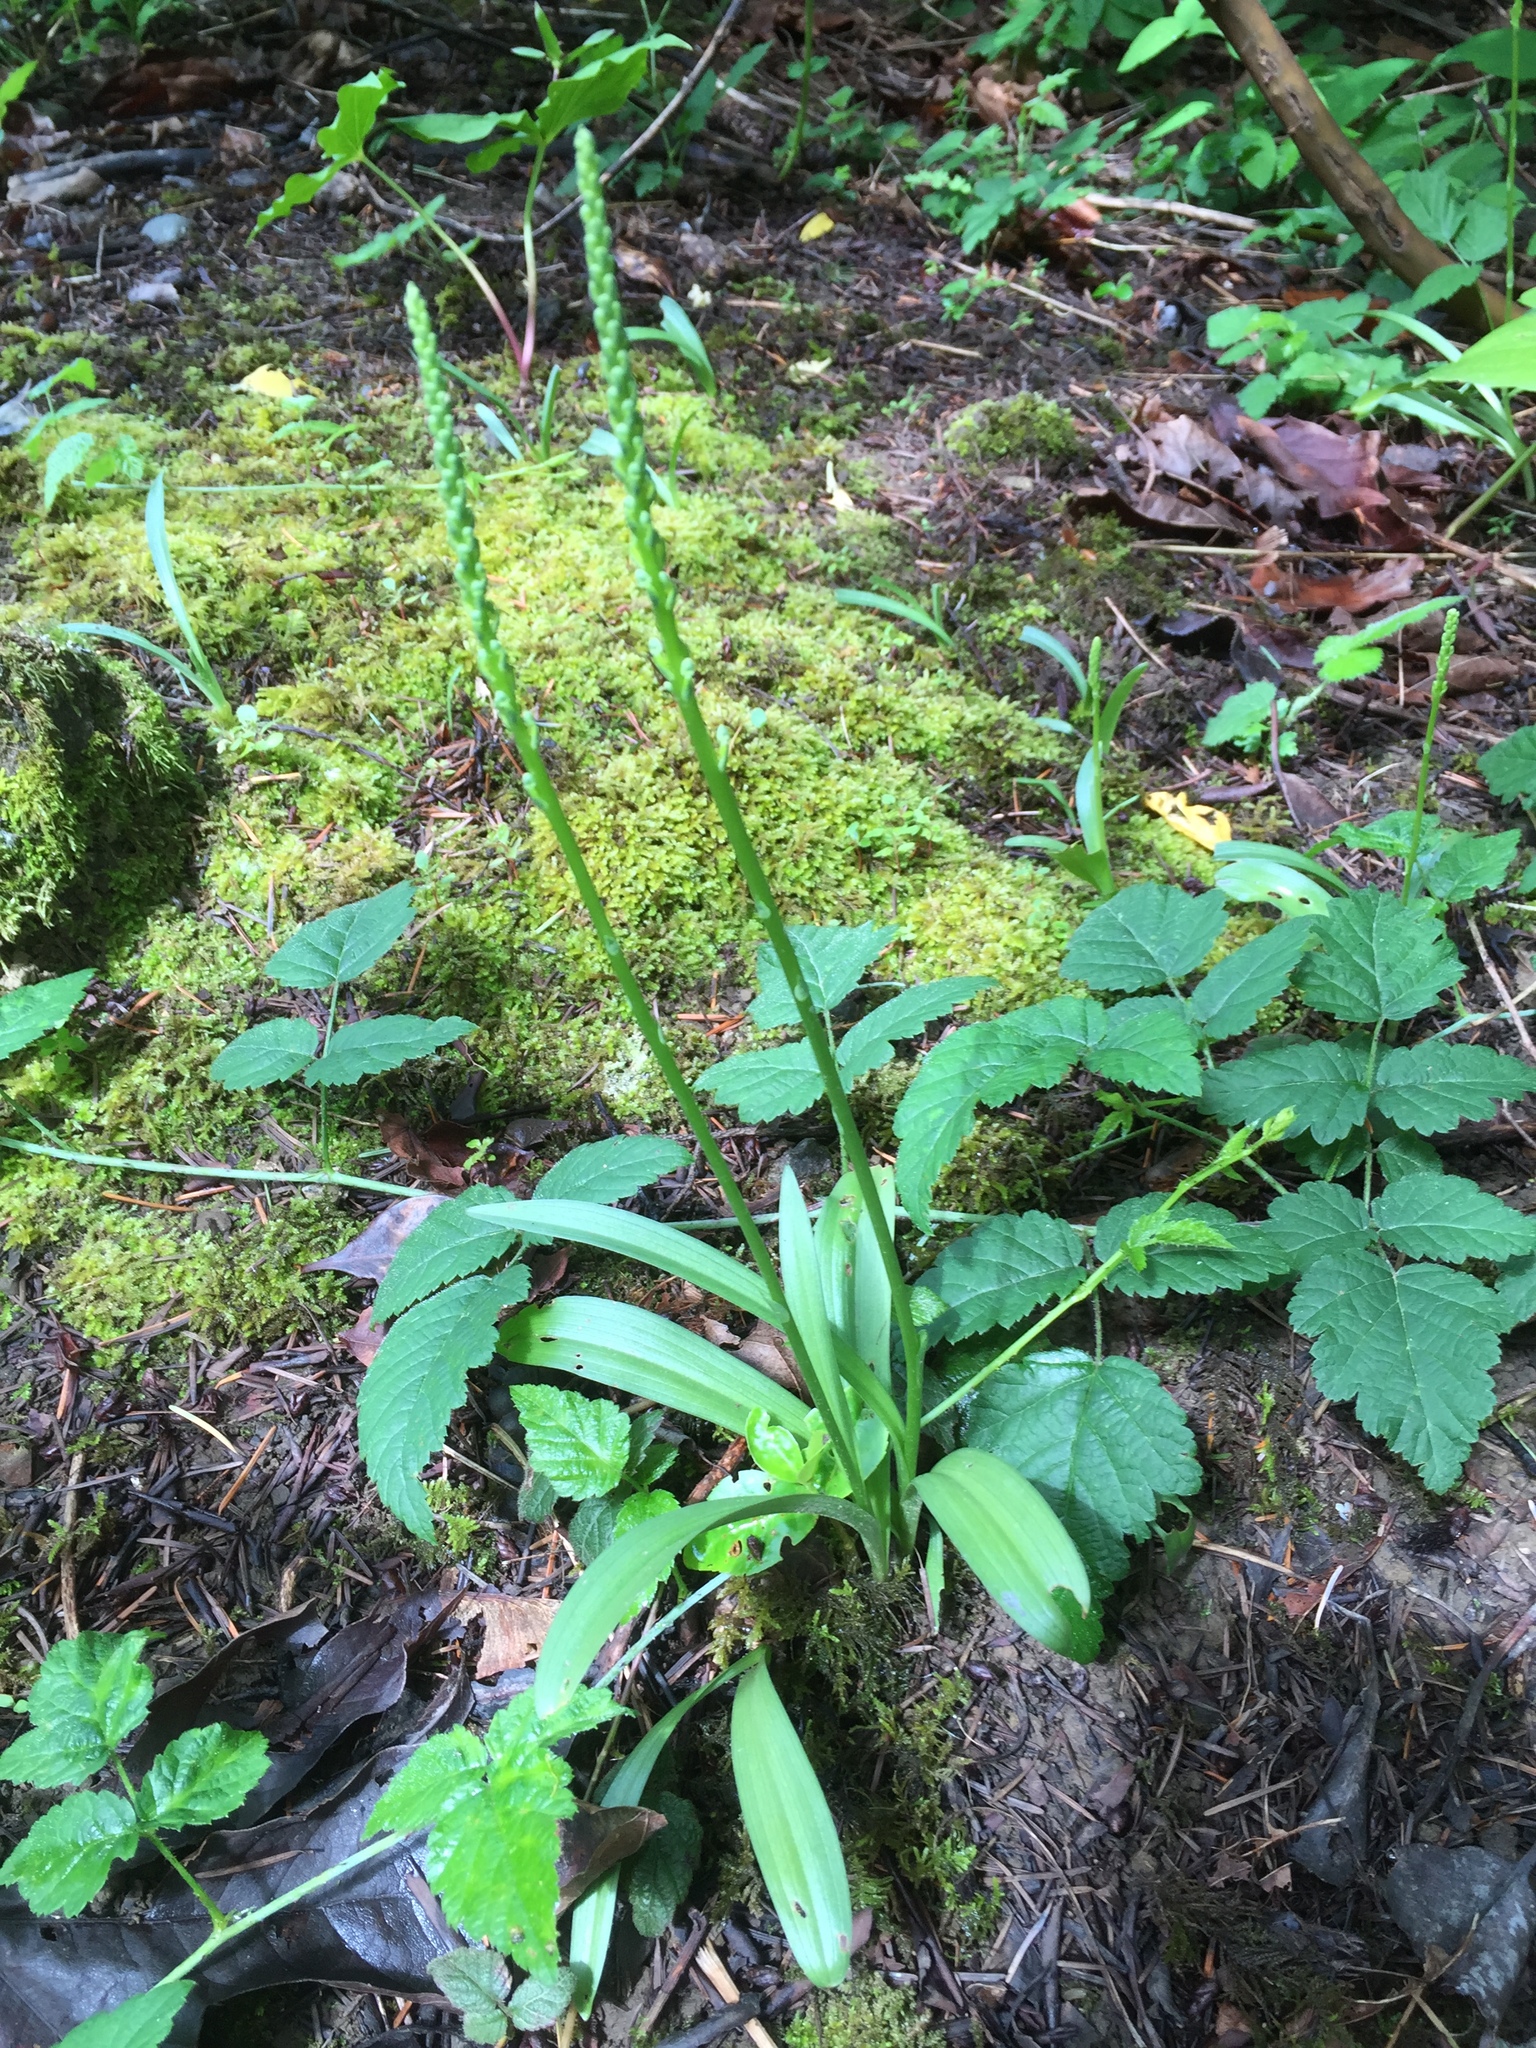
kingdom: Plantae
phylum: Tracheophyta
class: Liliopsida
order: Asparagales
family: Orchidaceae
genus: Platanthera
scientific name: Platanthera unalascensis
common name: Alaska bog orchid
